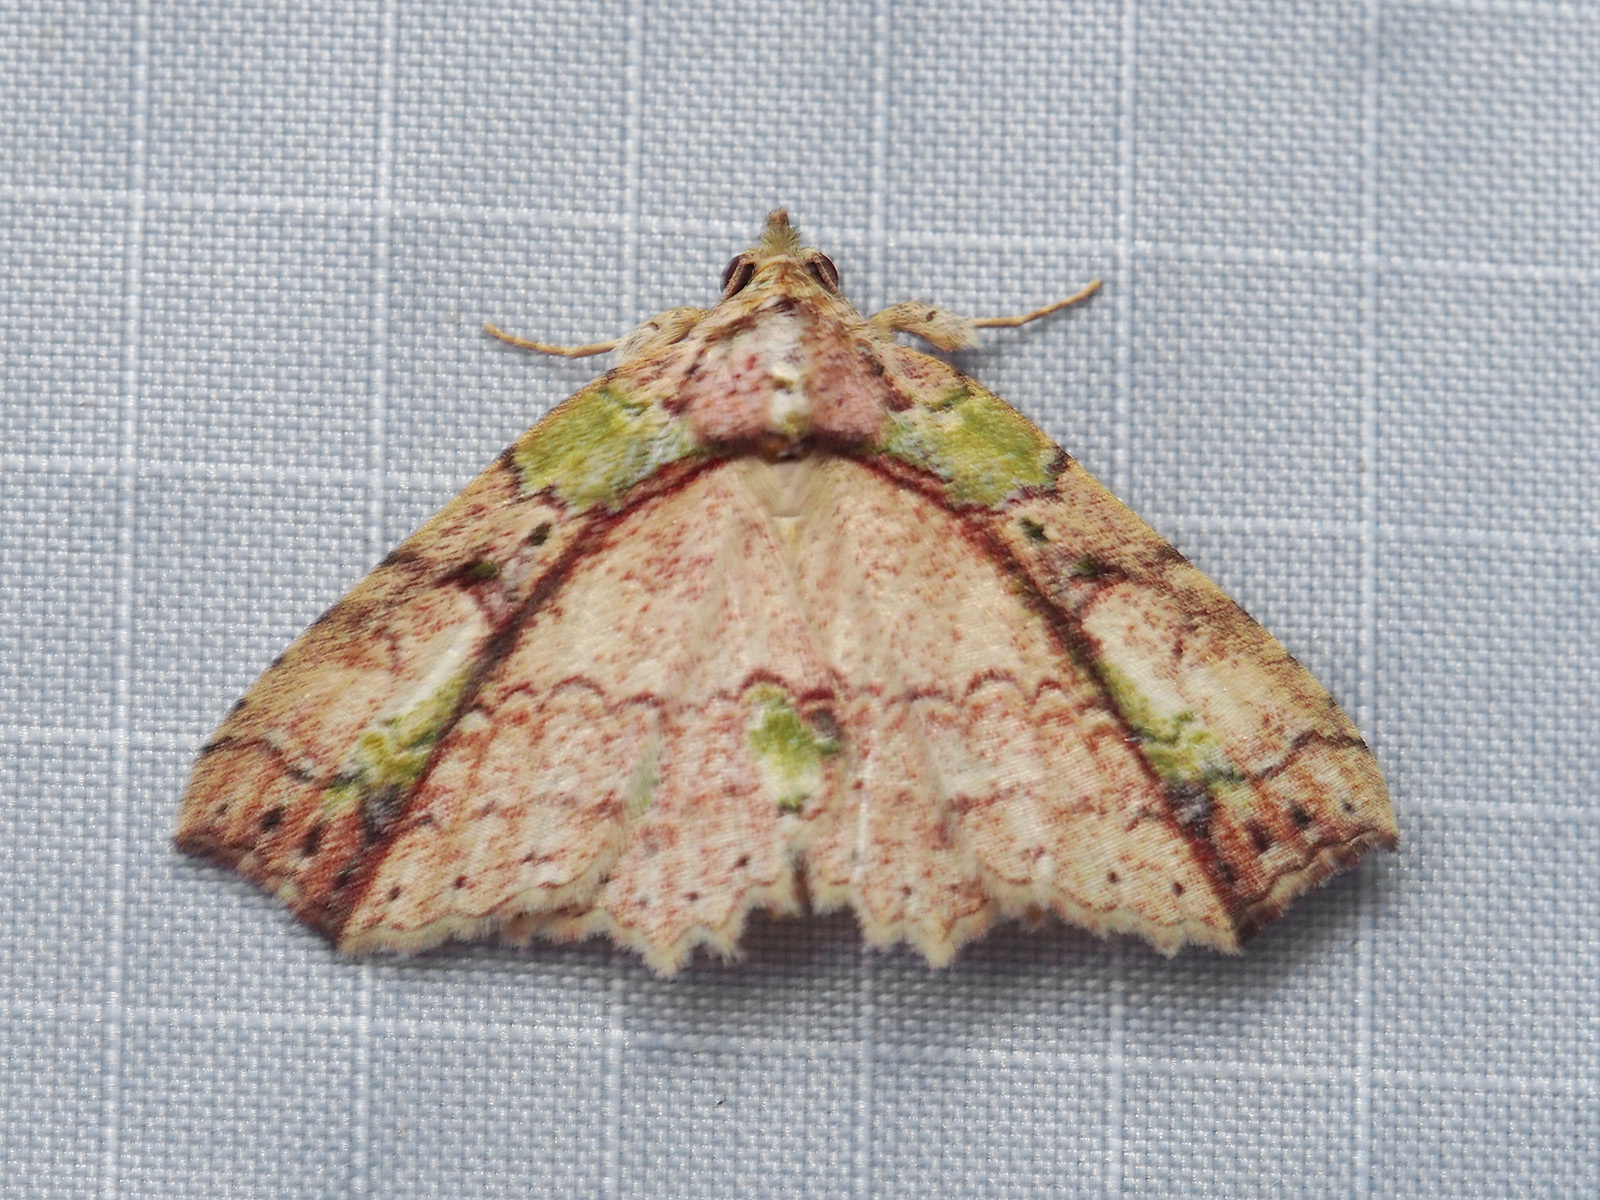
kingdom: Animalia
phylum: Arthropoda
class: Insecta
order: Lepidoptera
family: Erebidae
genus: Tamba
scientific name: Tamba mnionomera
